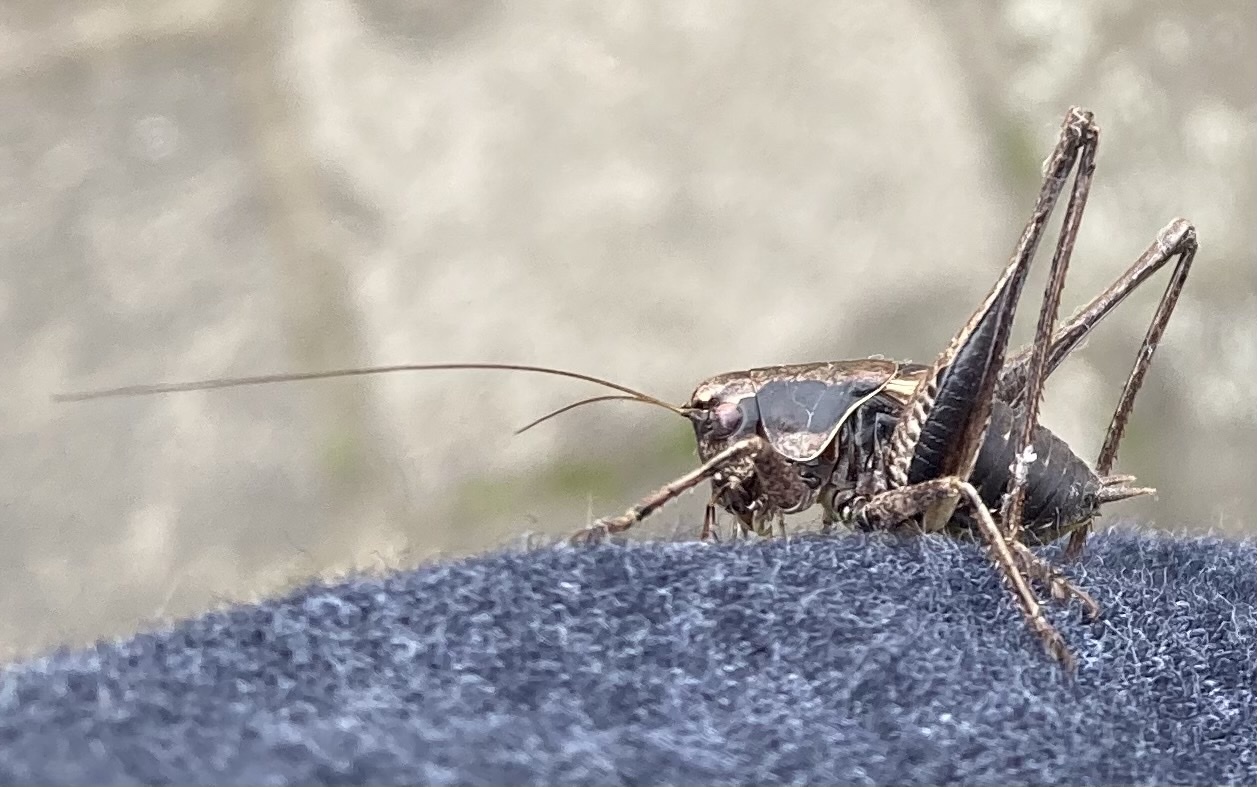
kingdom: Animalia
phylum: Arthropoda
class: Insecta
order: Orthoptera
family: Tettigoniidae
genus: Pholidoptera
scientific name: Pholidoptera griseoaptera
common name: Dark bush-cricket
